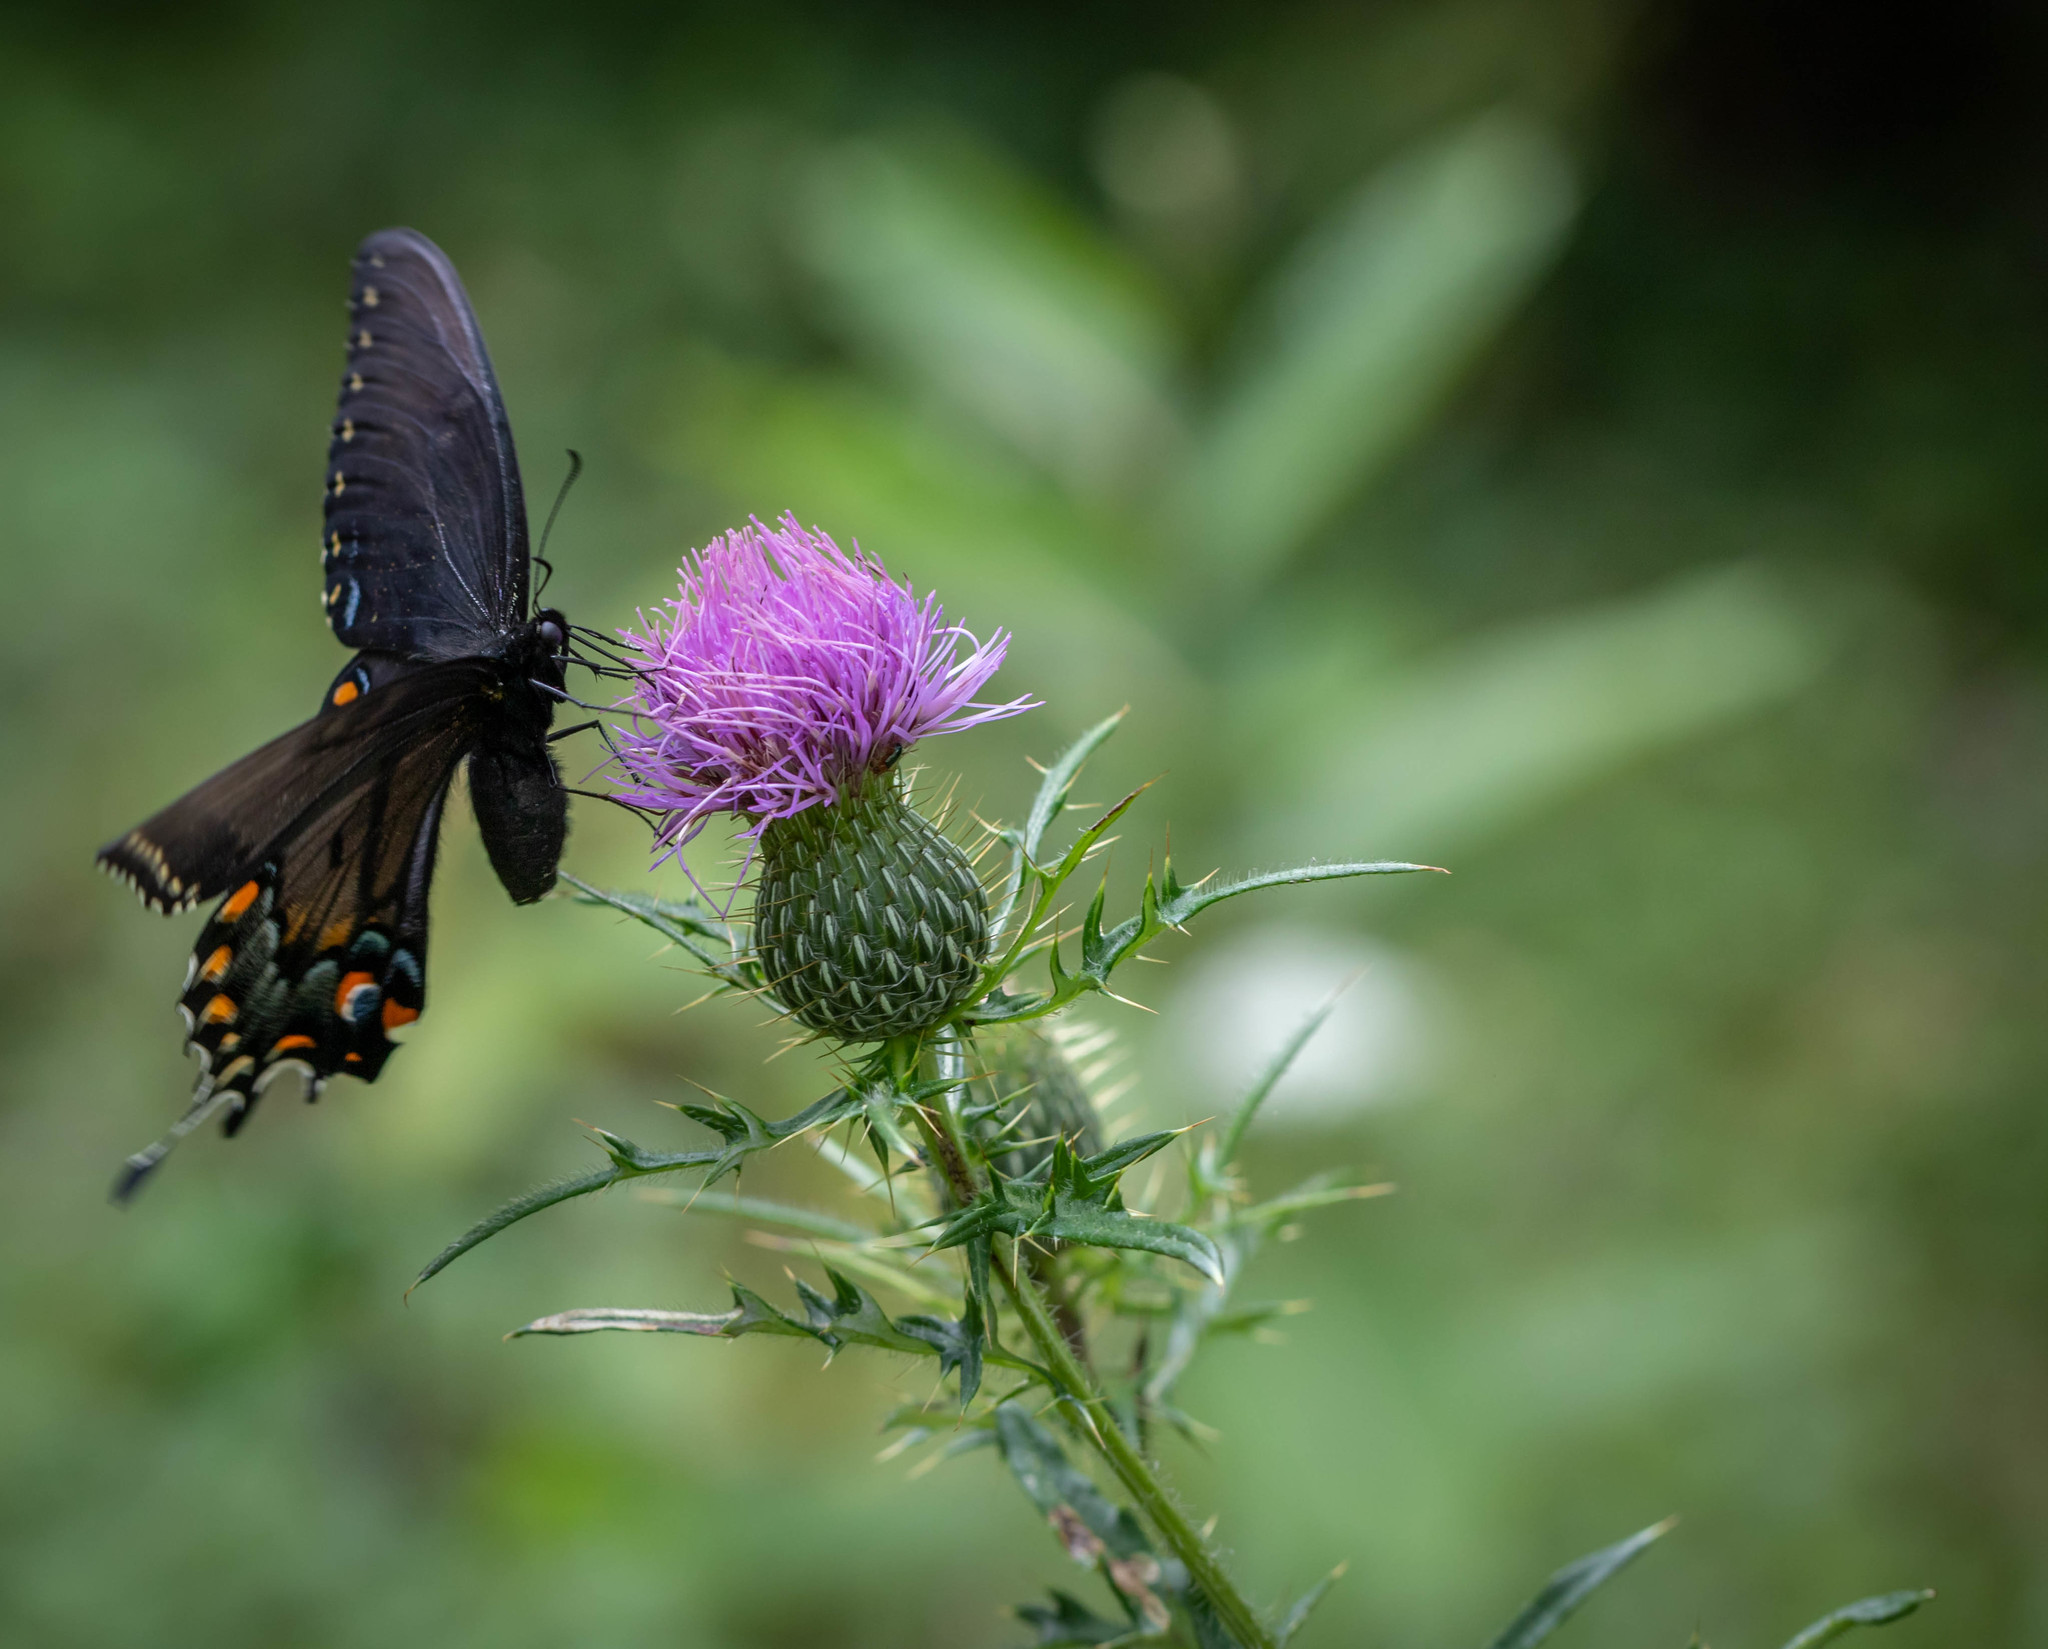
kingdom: Animalia
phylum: Arthropoda
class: Insecta
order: Lepidoptera
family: Papilionidae
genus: Papilio
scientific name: Papilio glaucus
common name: Tiger swallowtail
